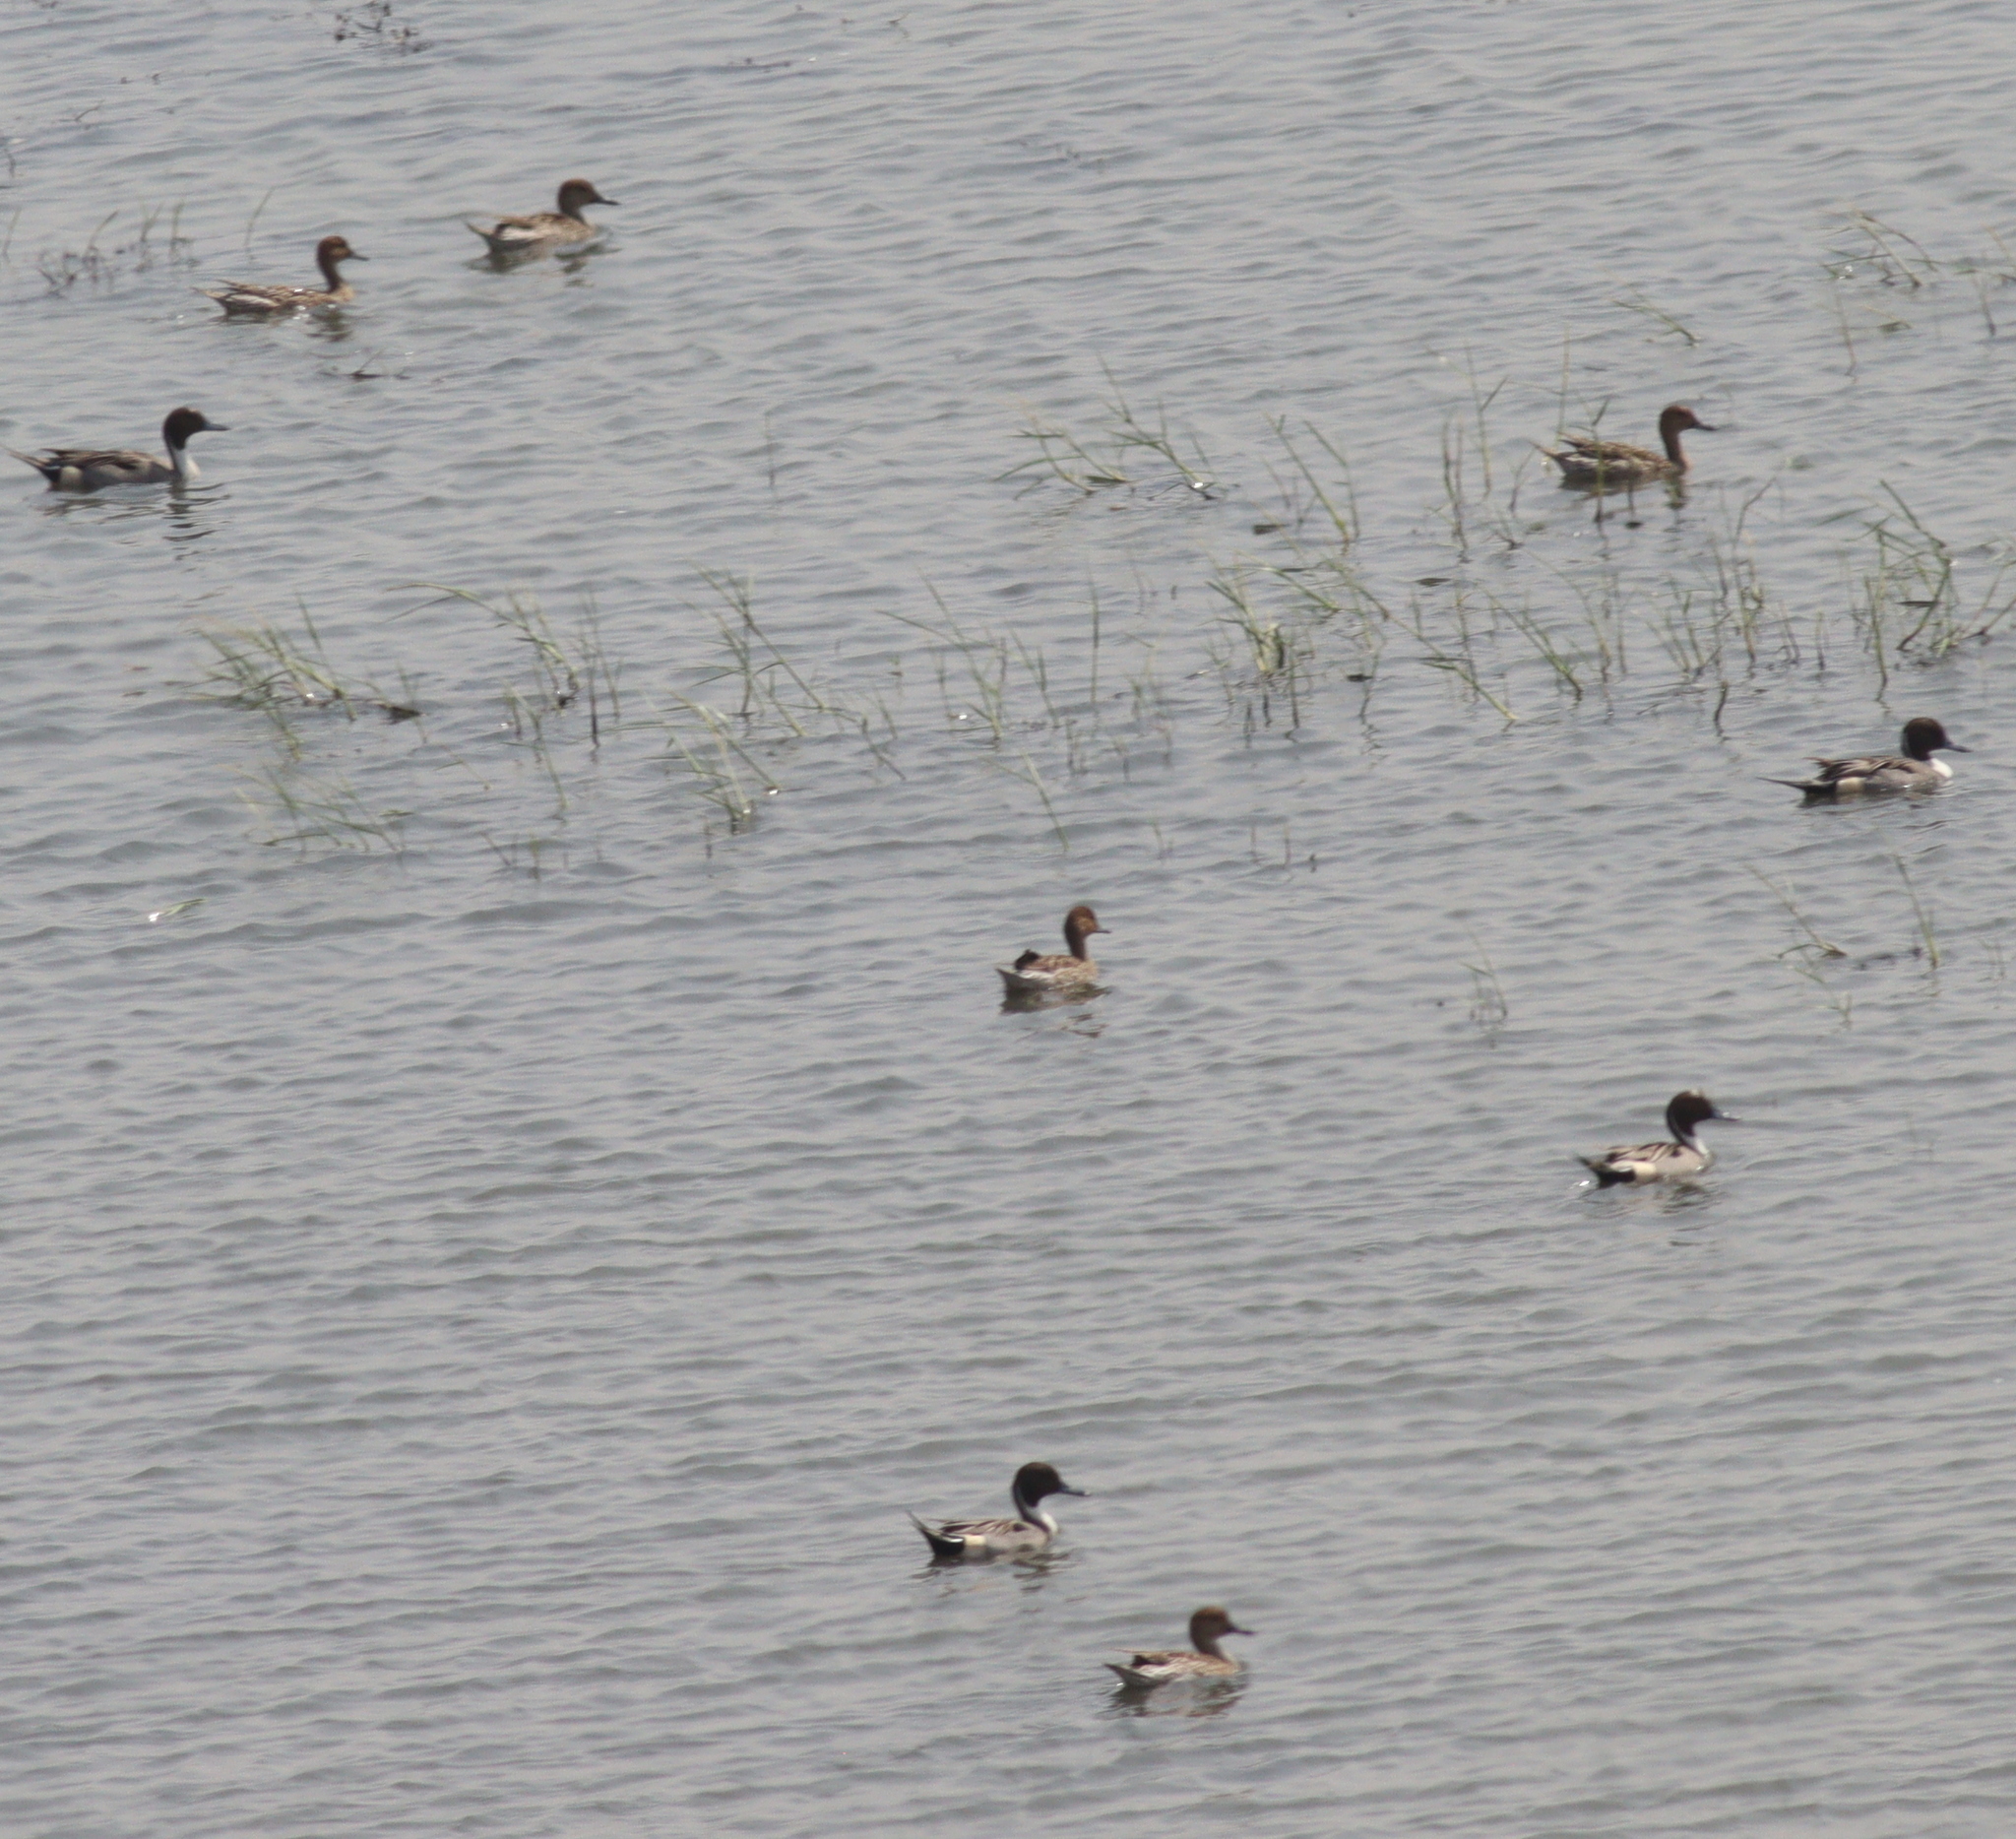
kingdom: Animalia
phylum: Chordata
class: Aves
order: Anseriformes
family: Anatidae
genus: Anas
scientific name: Anas acuta
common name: Northern pintail
